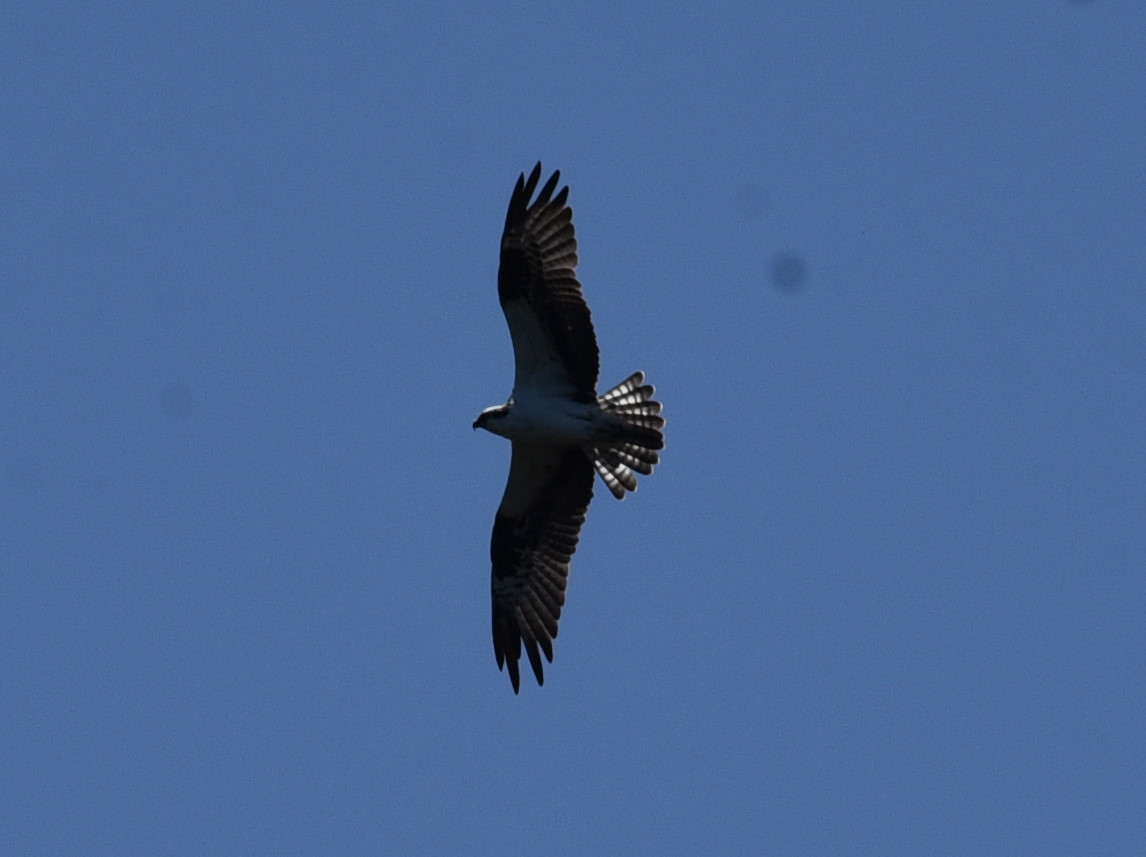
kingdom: Animalia
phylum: Chordata
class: Aves
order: Accipitriformes
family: Pandionidae
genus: Pandion
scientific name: Pandion haliaetus
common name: Osprey
